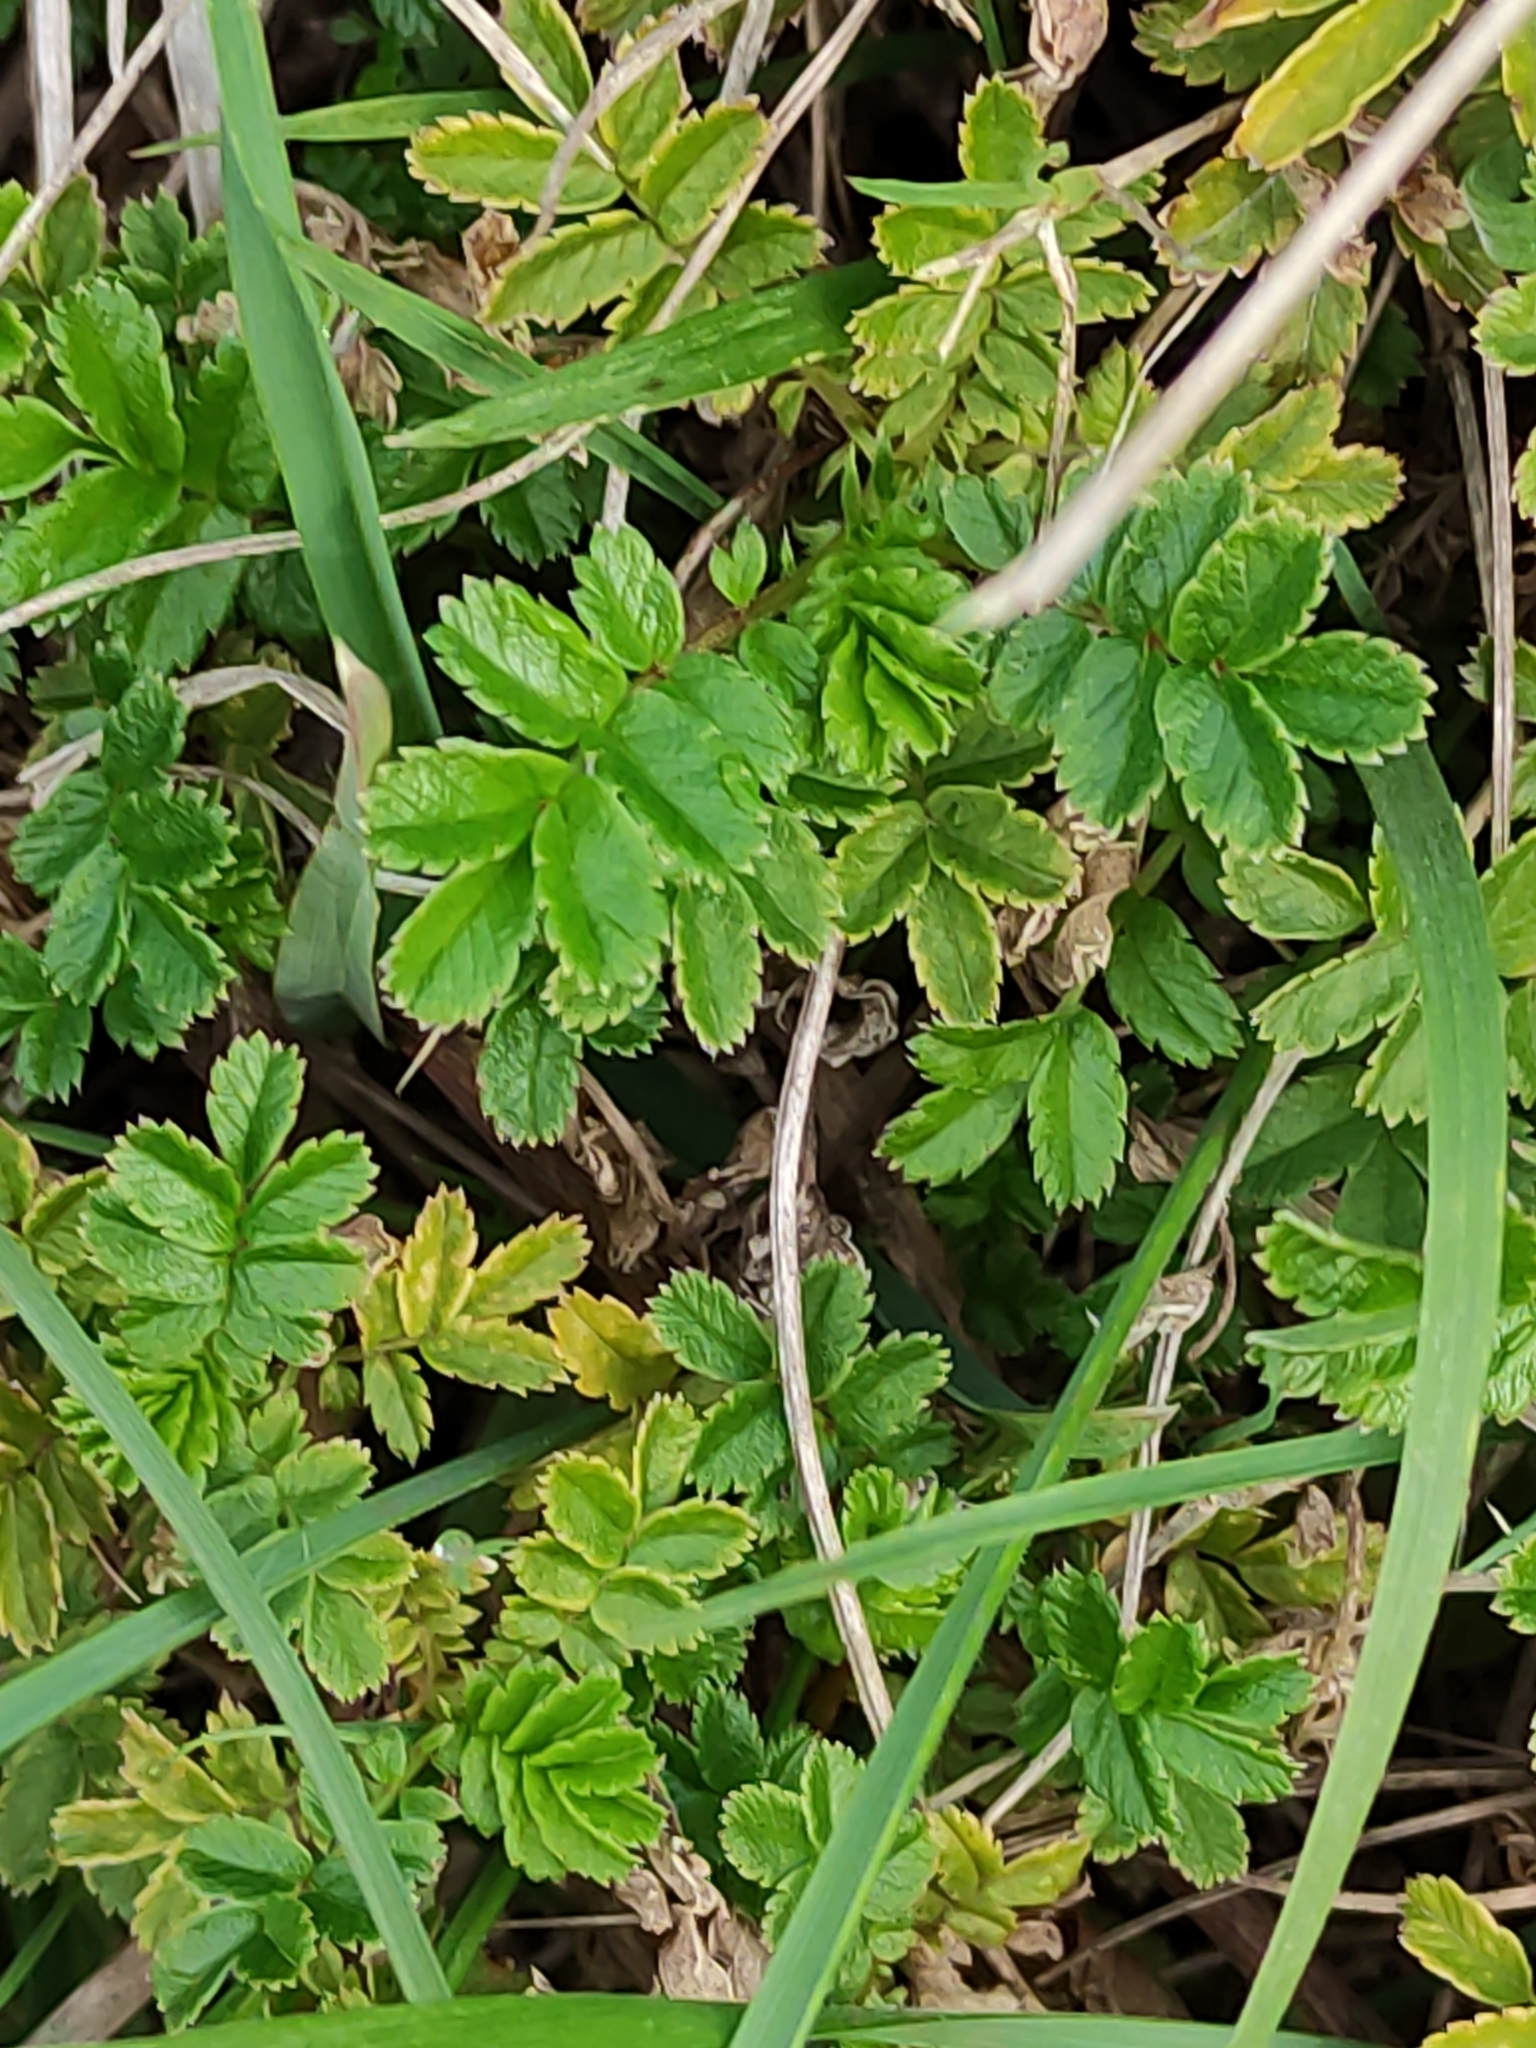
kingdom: Plantae
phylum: Tracheophyta
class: Magnoliopsida
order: Rosales
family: Rosaceae
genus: Acaena
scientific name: Acaena novae-zelandiae
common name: Pirri-pirri-bur
